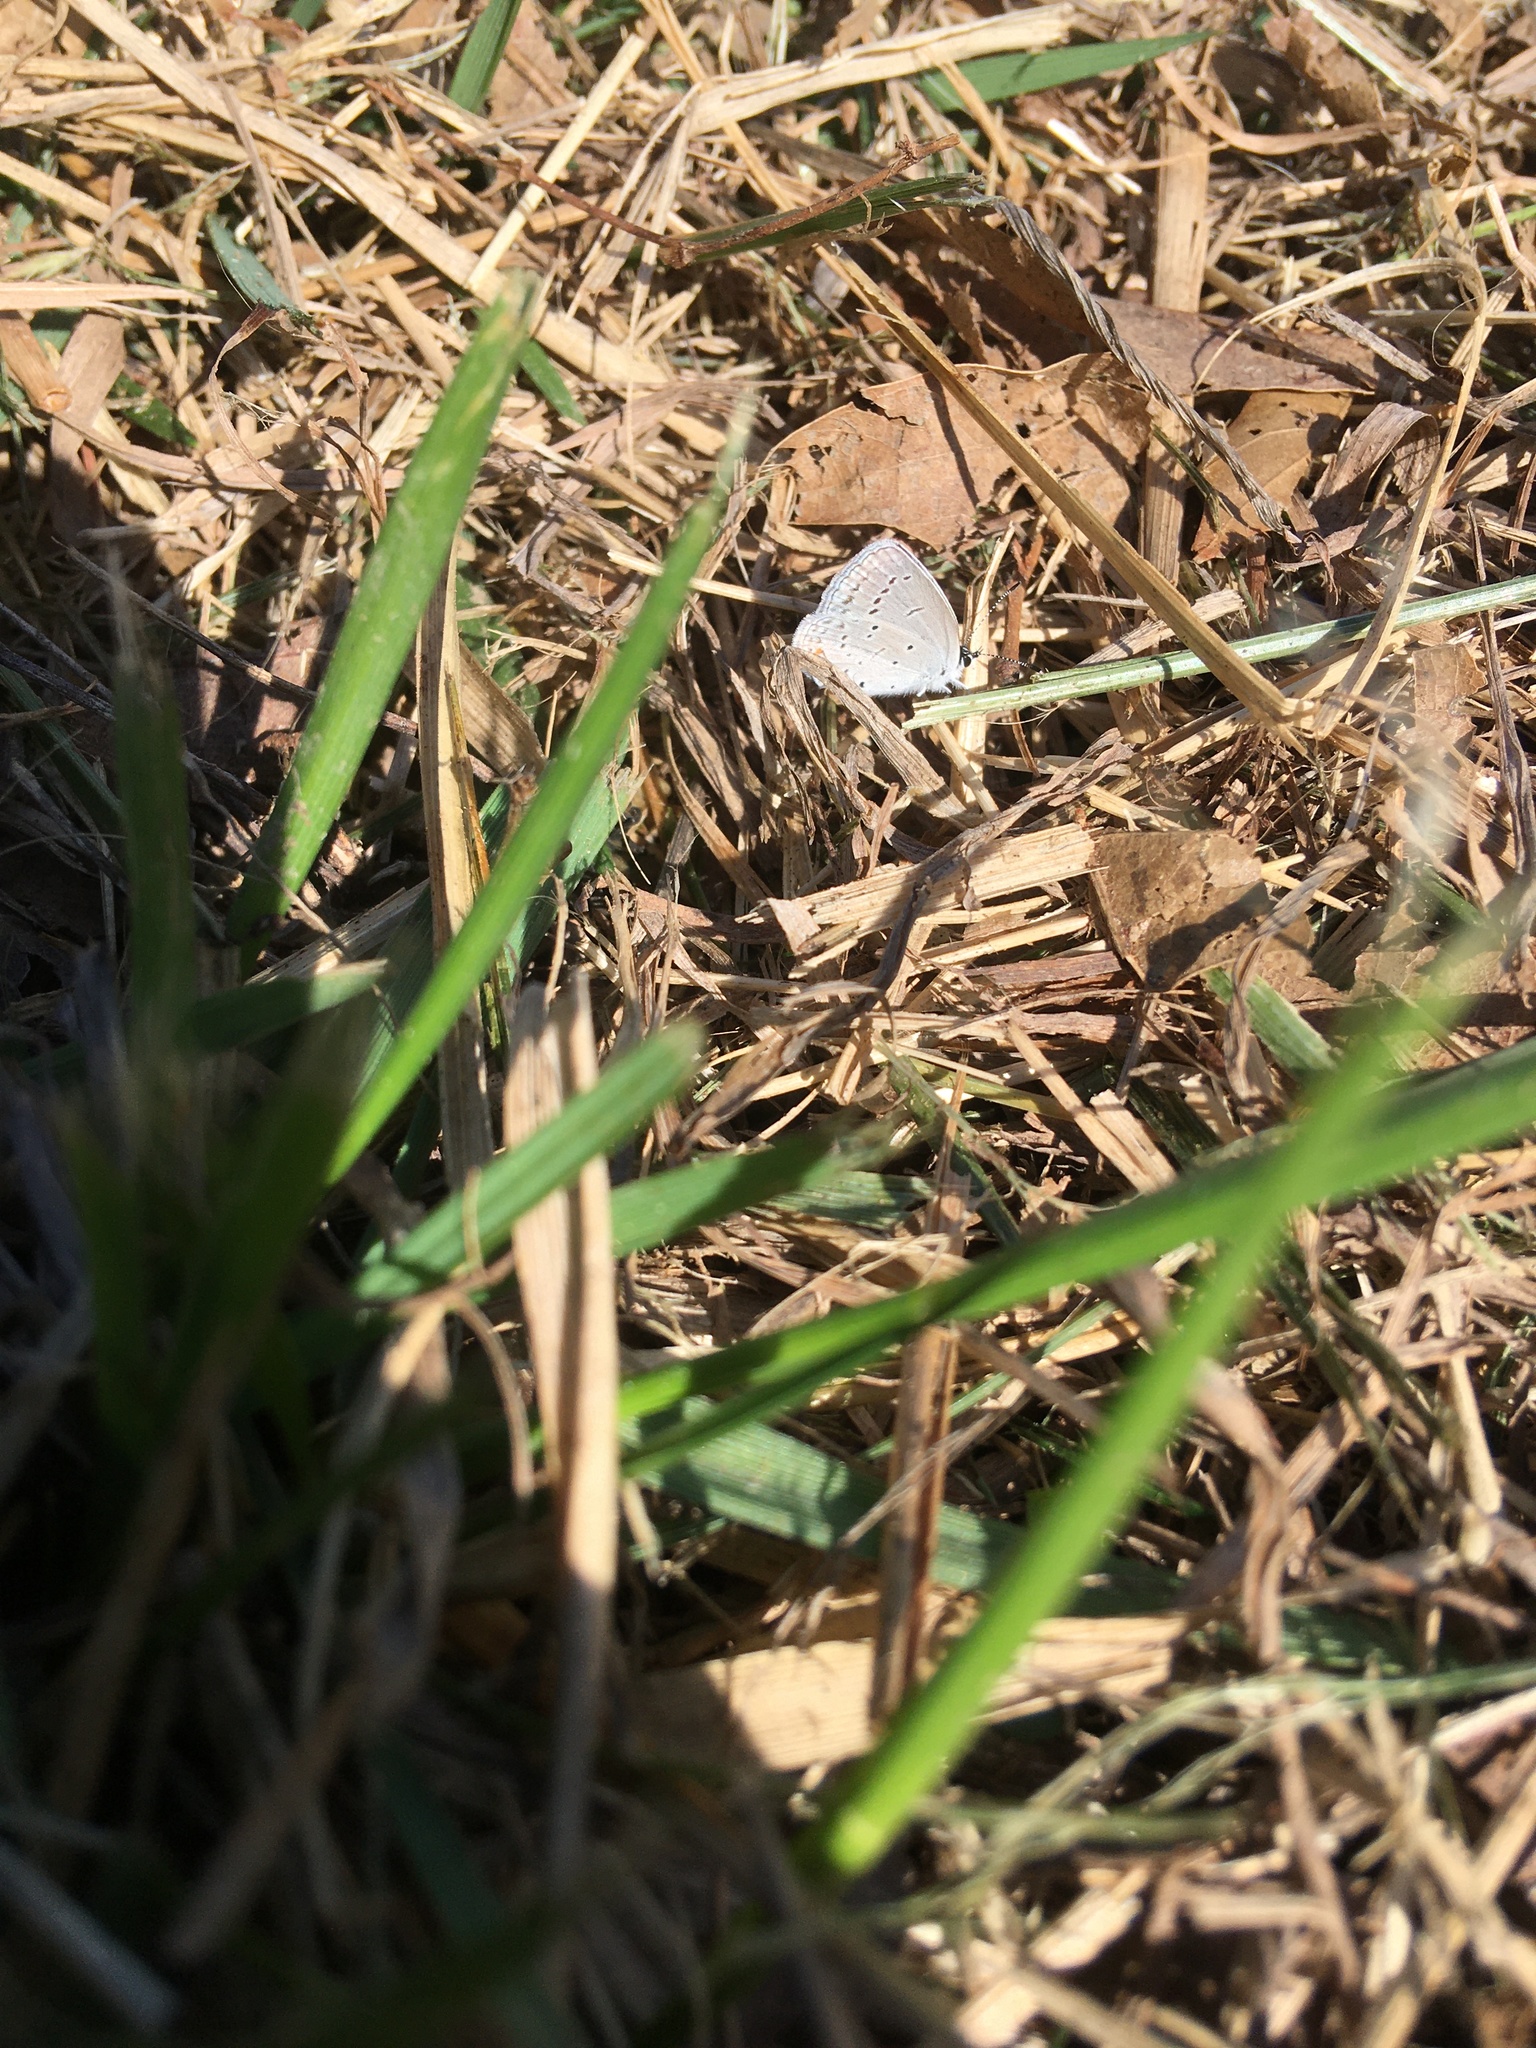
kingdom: Animalia
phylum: Arthropoda
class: Insecta
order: Lepidoptera
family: Lycaenidae
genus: Elkalyce
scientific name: Elkalyce comyntas
